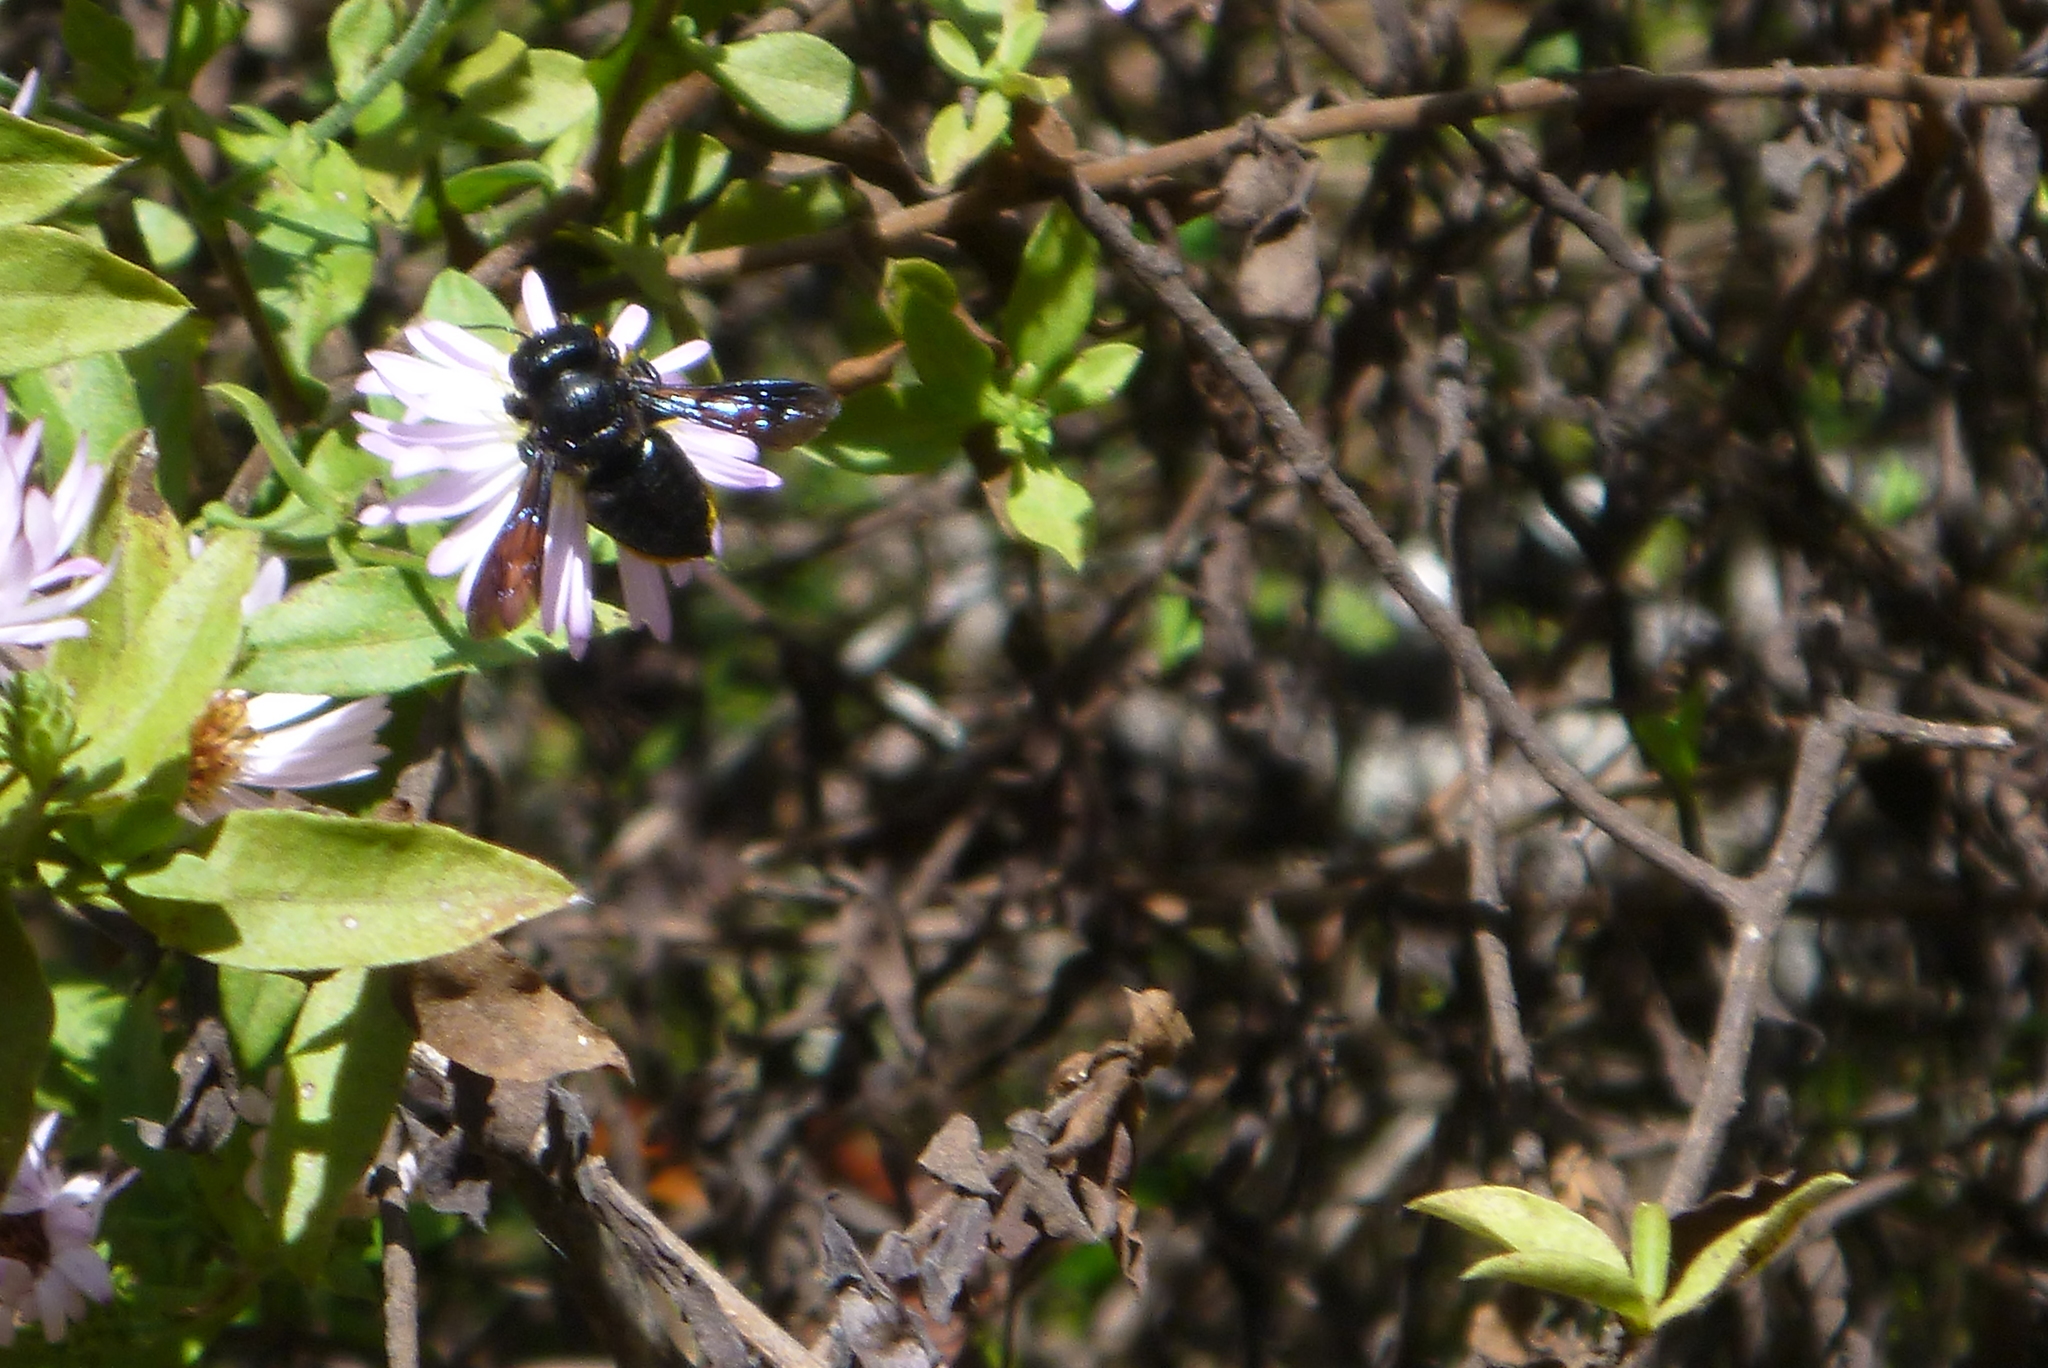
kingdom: Animalia
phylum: Arthropoda
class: Insecta
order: Hymenoptera
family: Megachilidae
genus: Megachile
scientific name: Megachile xylocopoides
